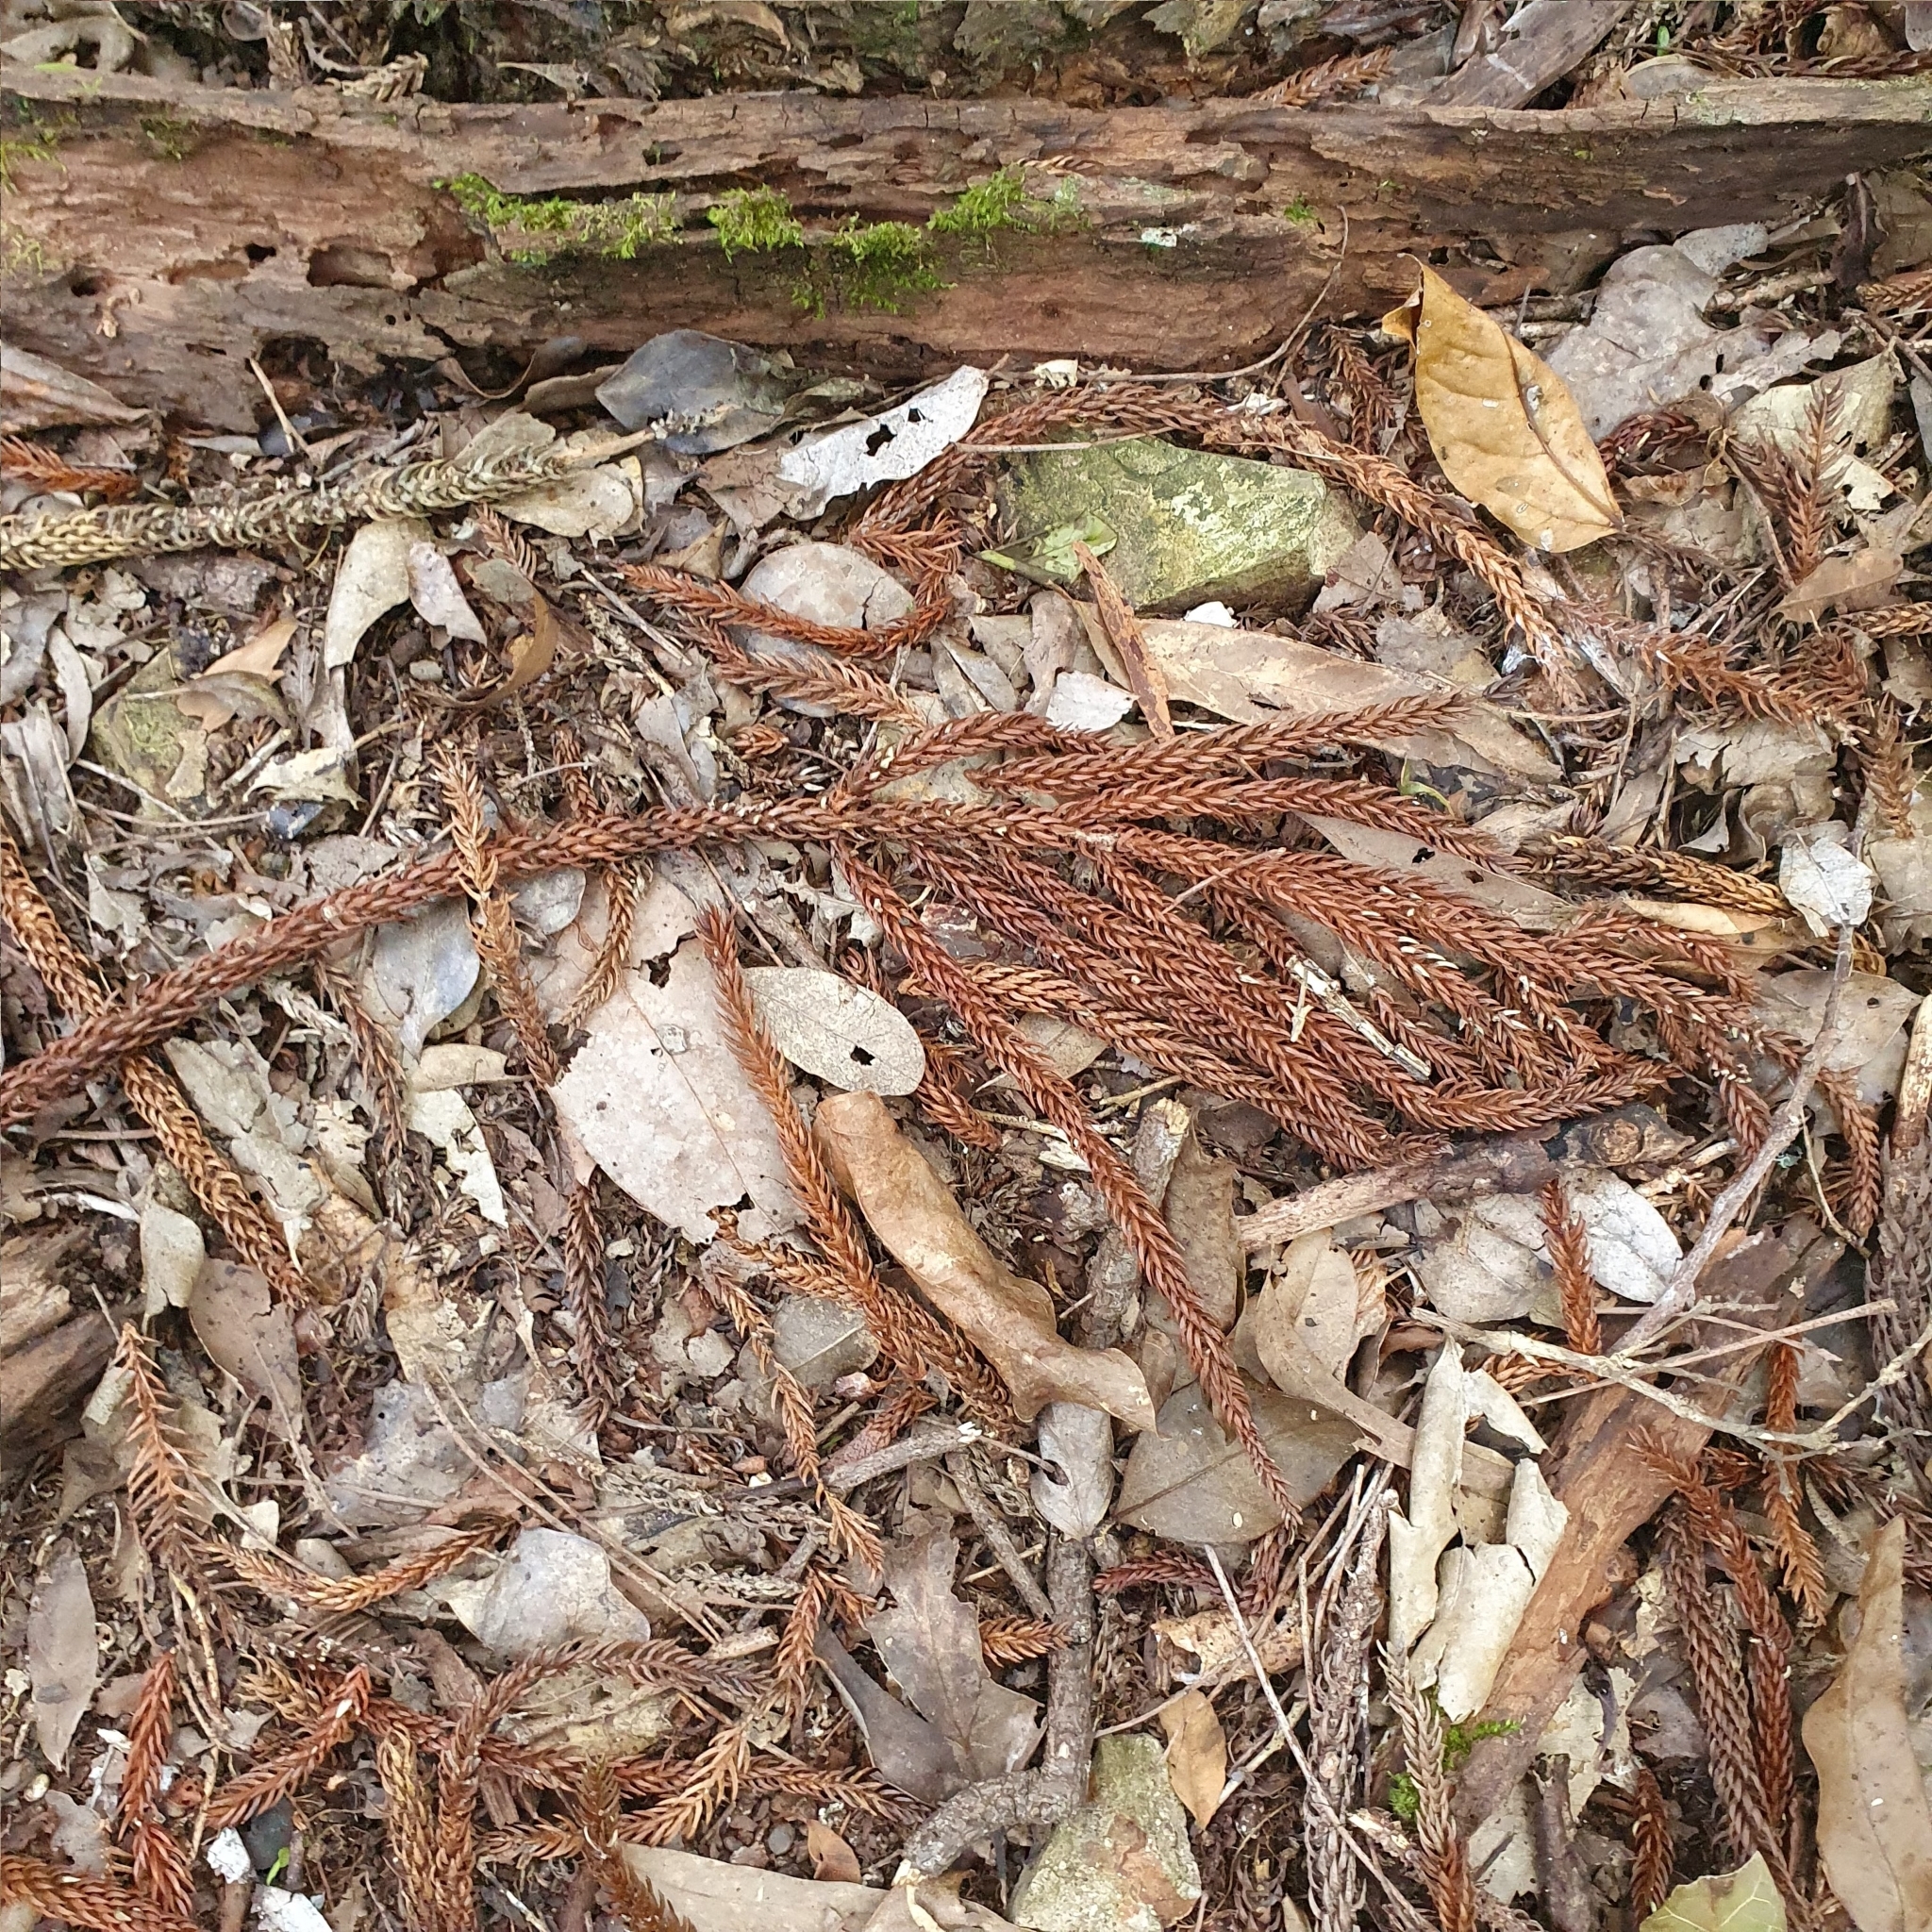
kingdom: Plantae
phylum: Tracheophyta
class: Pinopsida
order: Pinales
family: Araucariaceae
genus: Araucaria
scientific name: Araucaria cunninghamii
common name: Colonial pine
